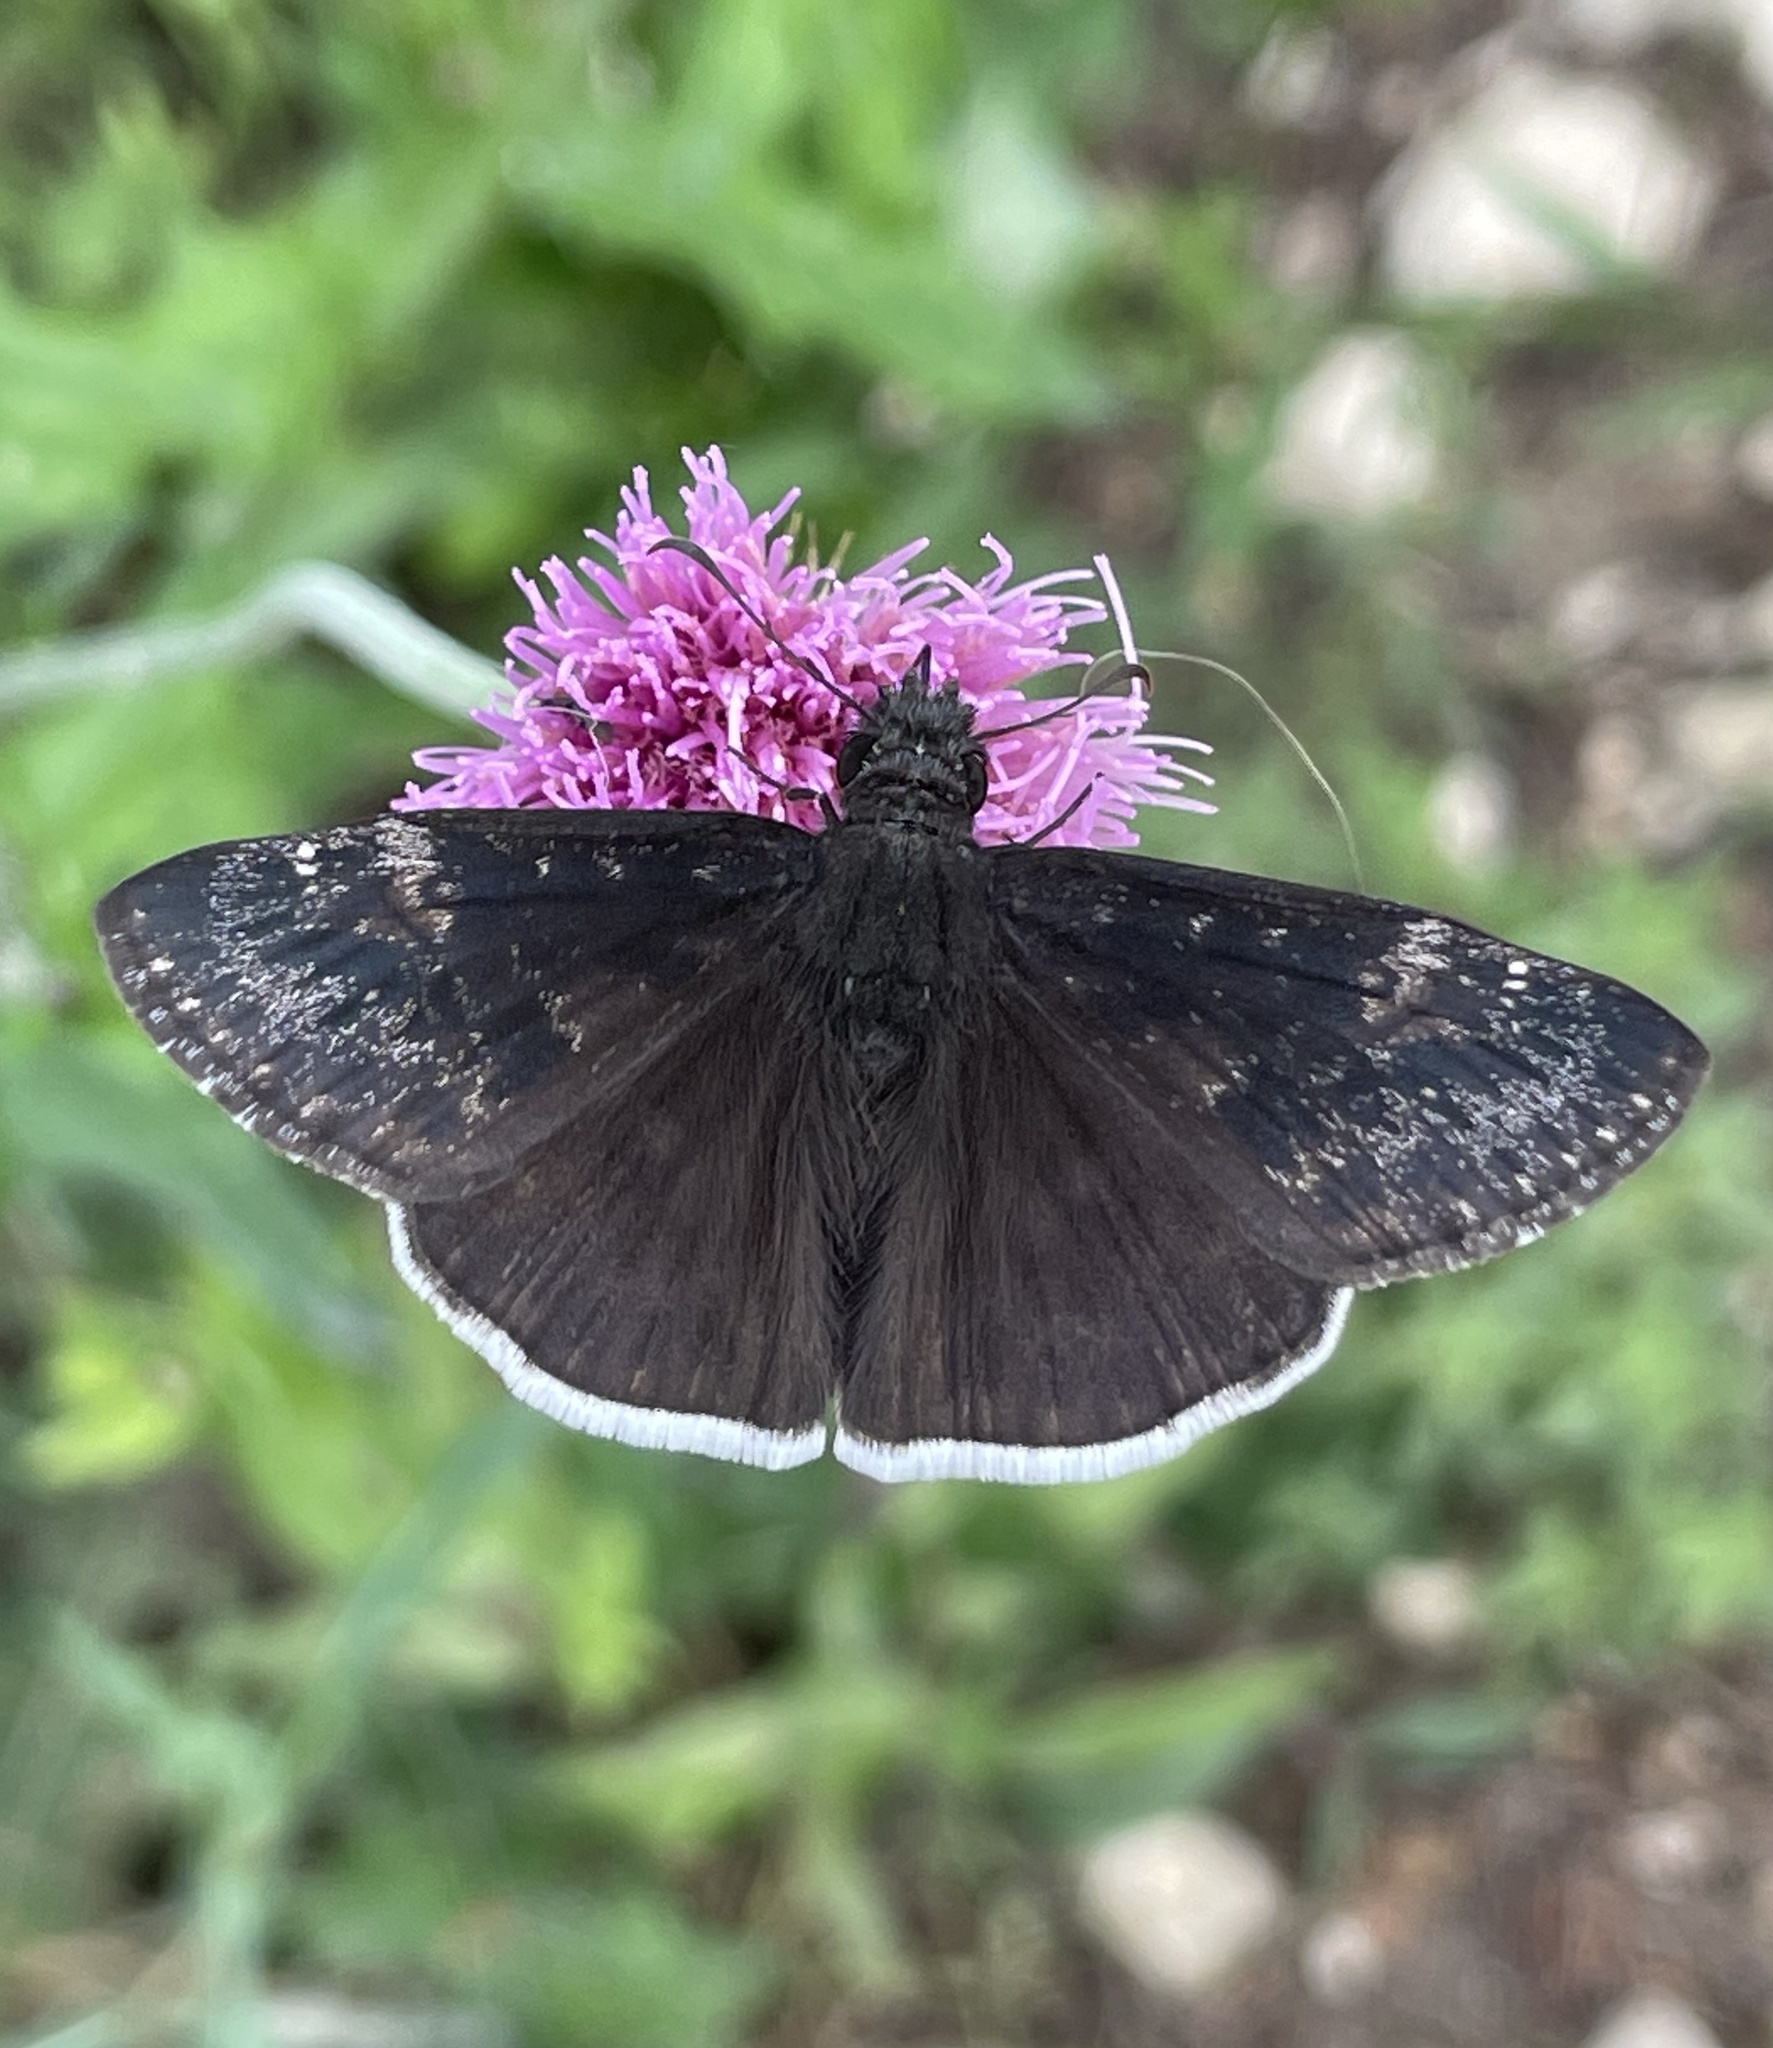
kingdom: Animalia
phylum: Arthropoda
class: Insecta
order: Lepidoptera
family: Hesperiidae
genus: Erynnis
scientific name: Erynnis funeralis
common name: Funereal duskywing
